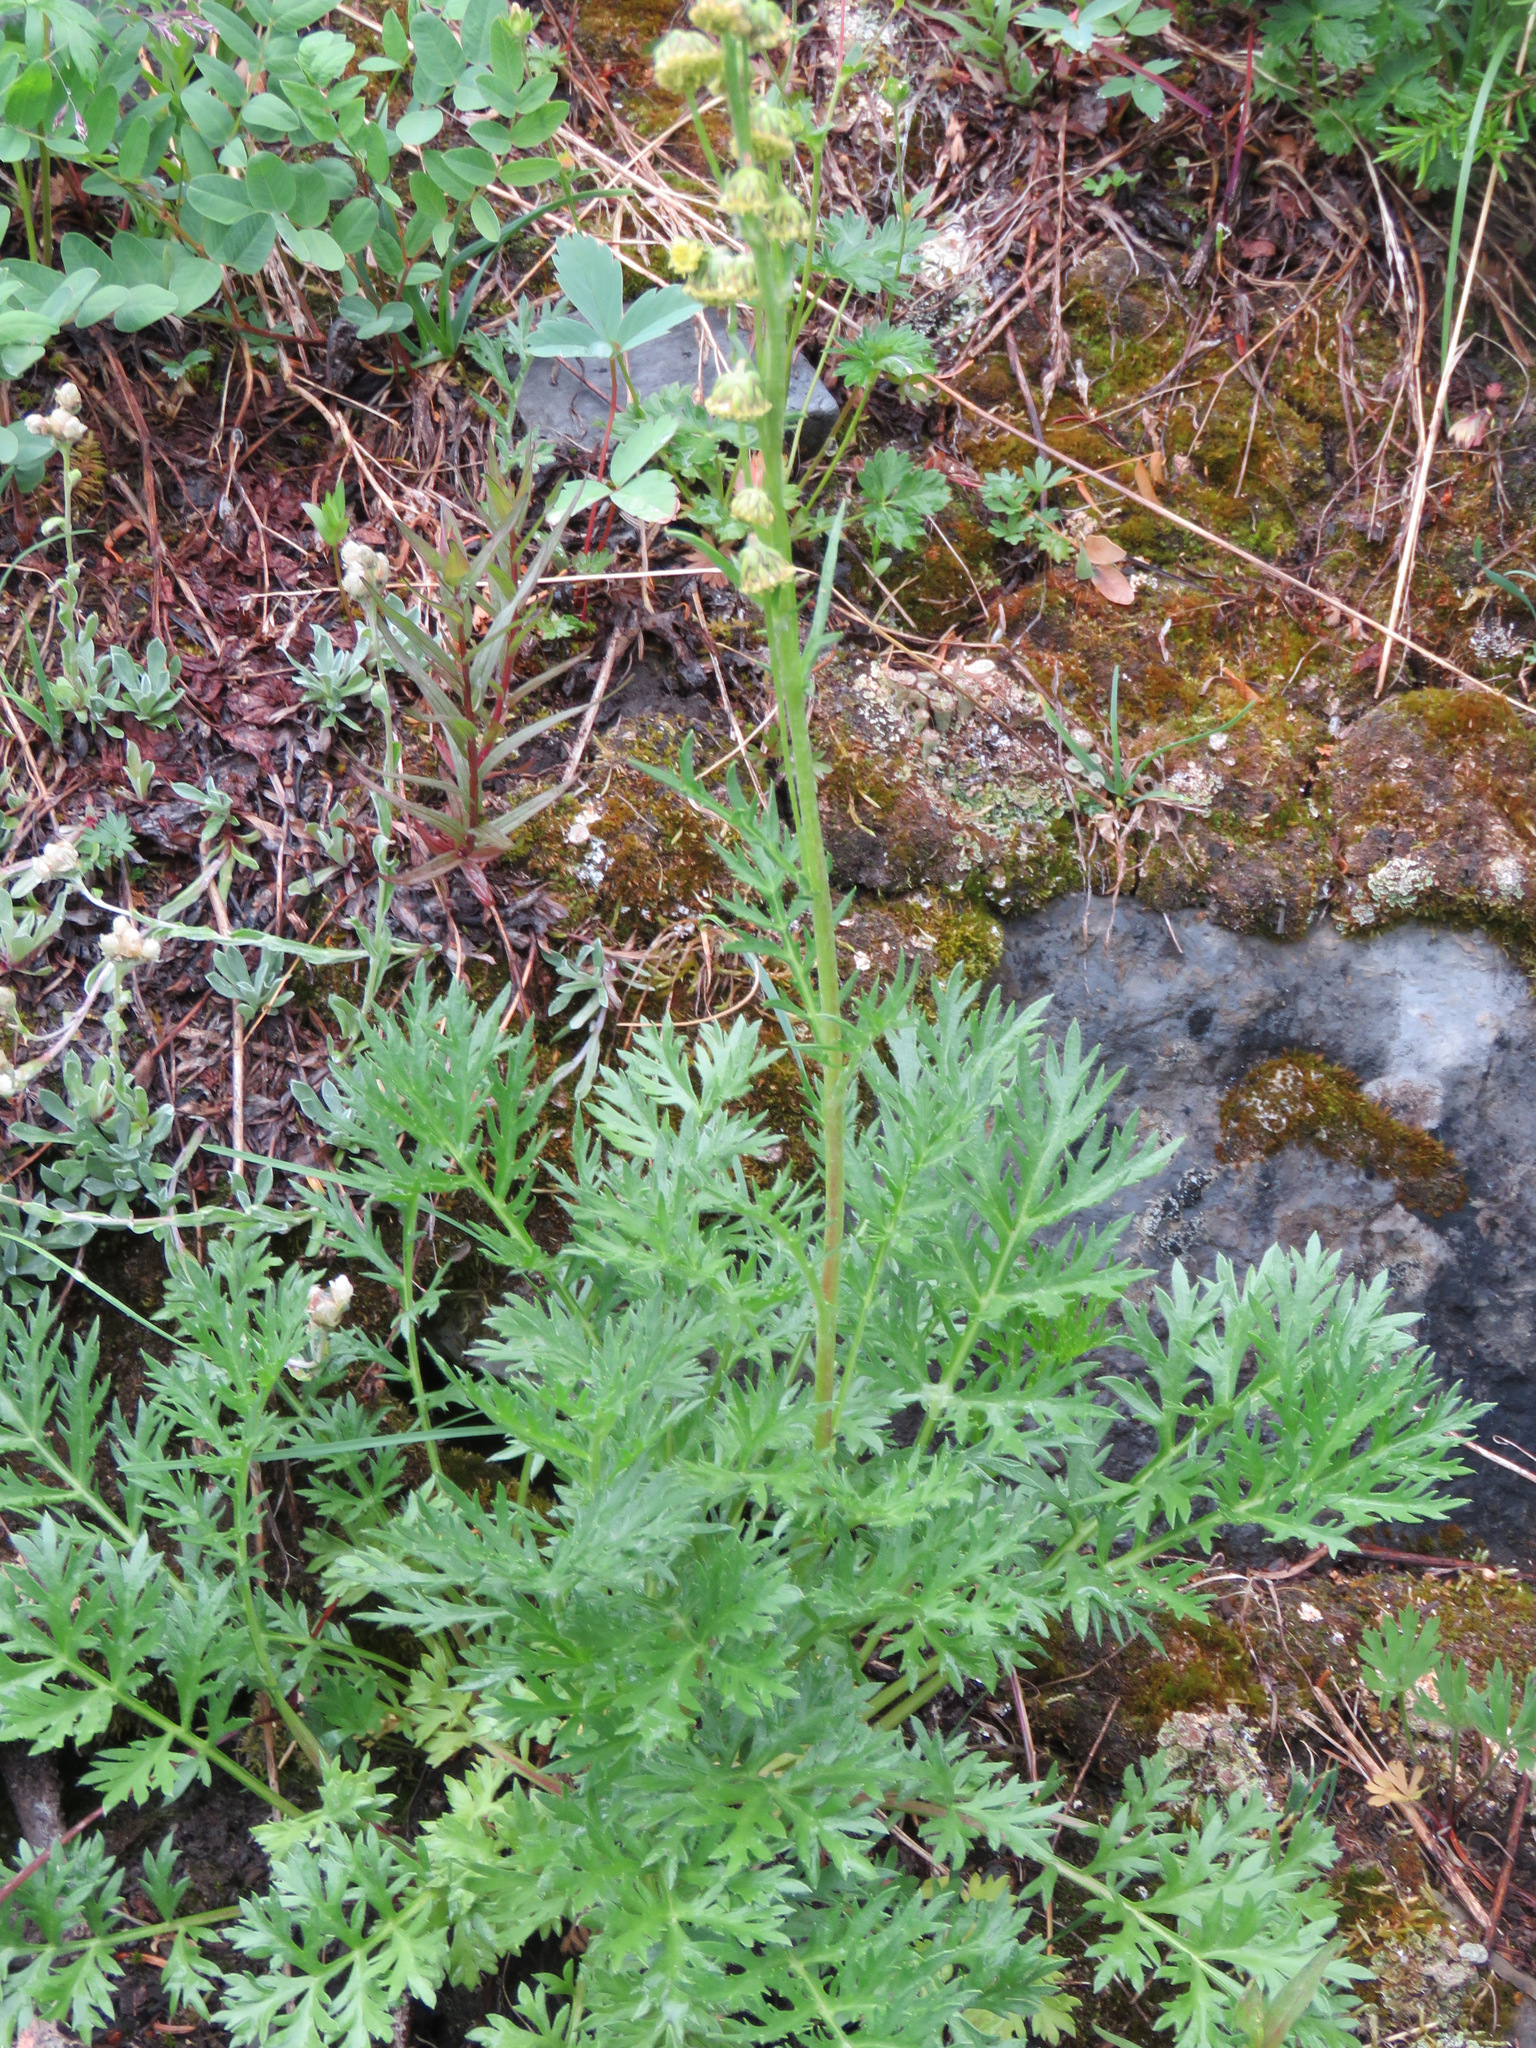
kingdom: Plantae
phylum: Tracheophyta
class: Magnoliopsida
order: Asterales
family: Asteraceae
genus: Artemisia
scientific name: Artemisia norvegica
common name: Norwegian mugwort
